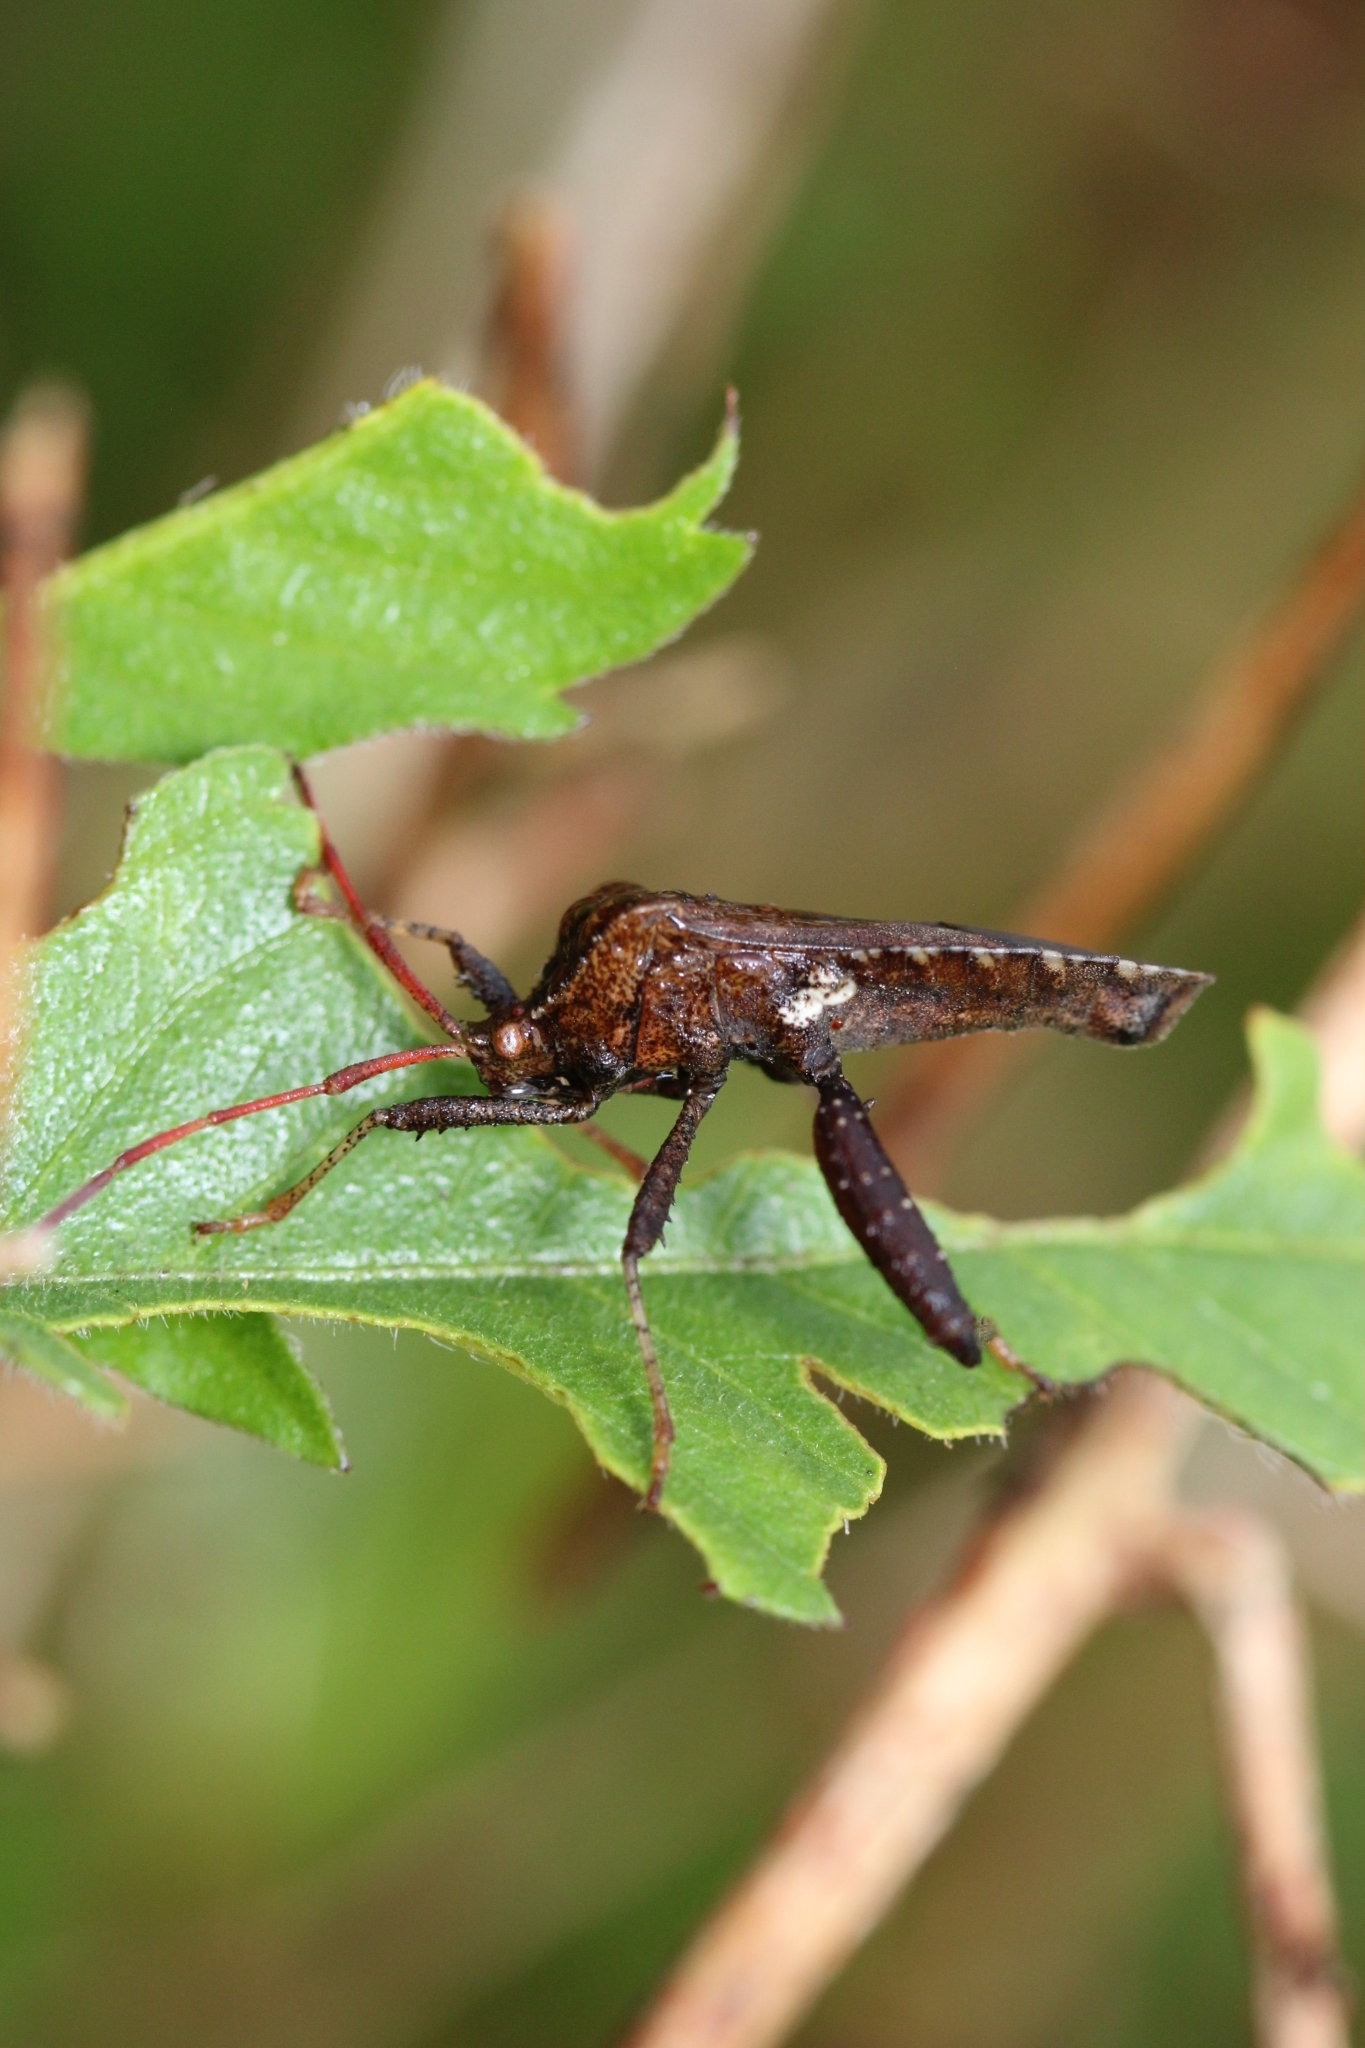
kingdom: Animalia
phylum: Arthropoda
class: Insecta
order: Hemiptera
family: Coreidae
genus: Euthochtha
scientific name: Euthochtha galeator
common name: Helmeted squash bug
